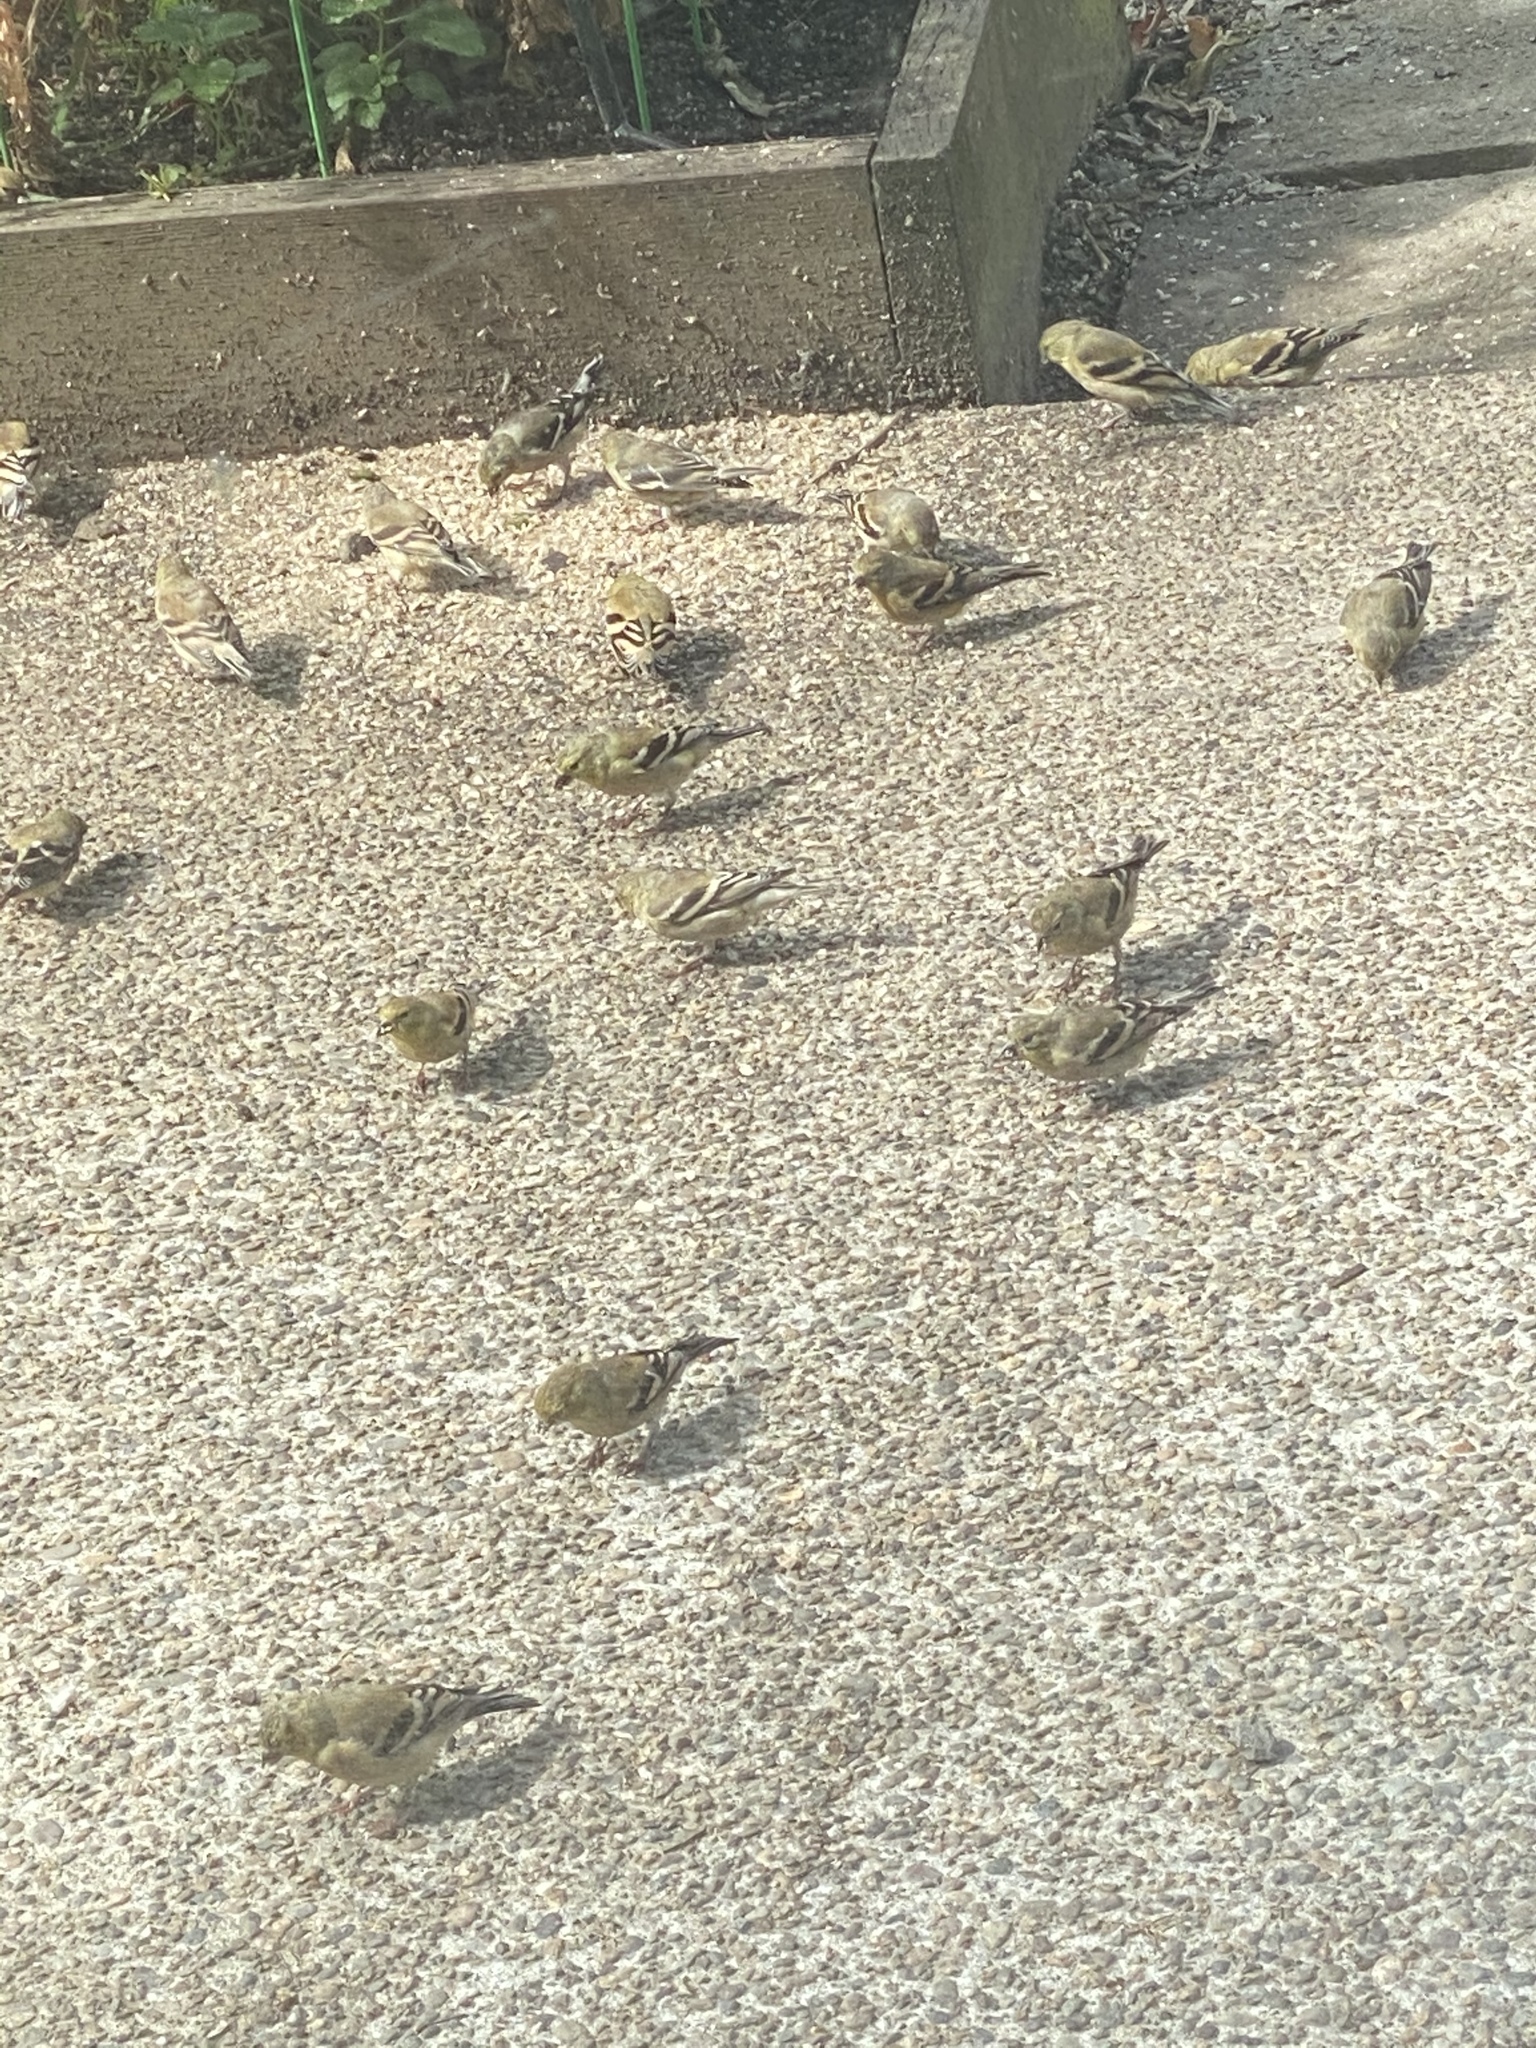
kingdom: Animalia
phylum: Chordata
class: Aves
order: Passeriformes
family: Fringillidae
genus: Spinus
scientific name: Spinus tristis
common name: American goldfinch
